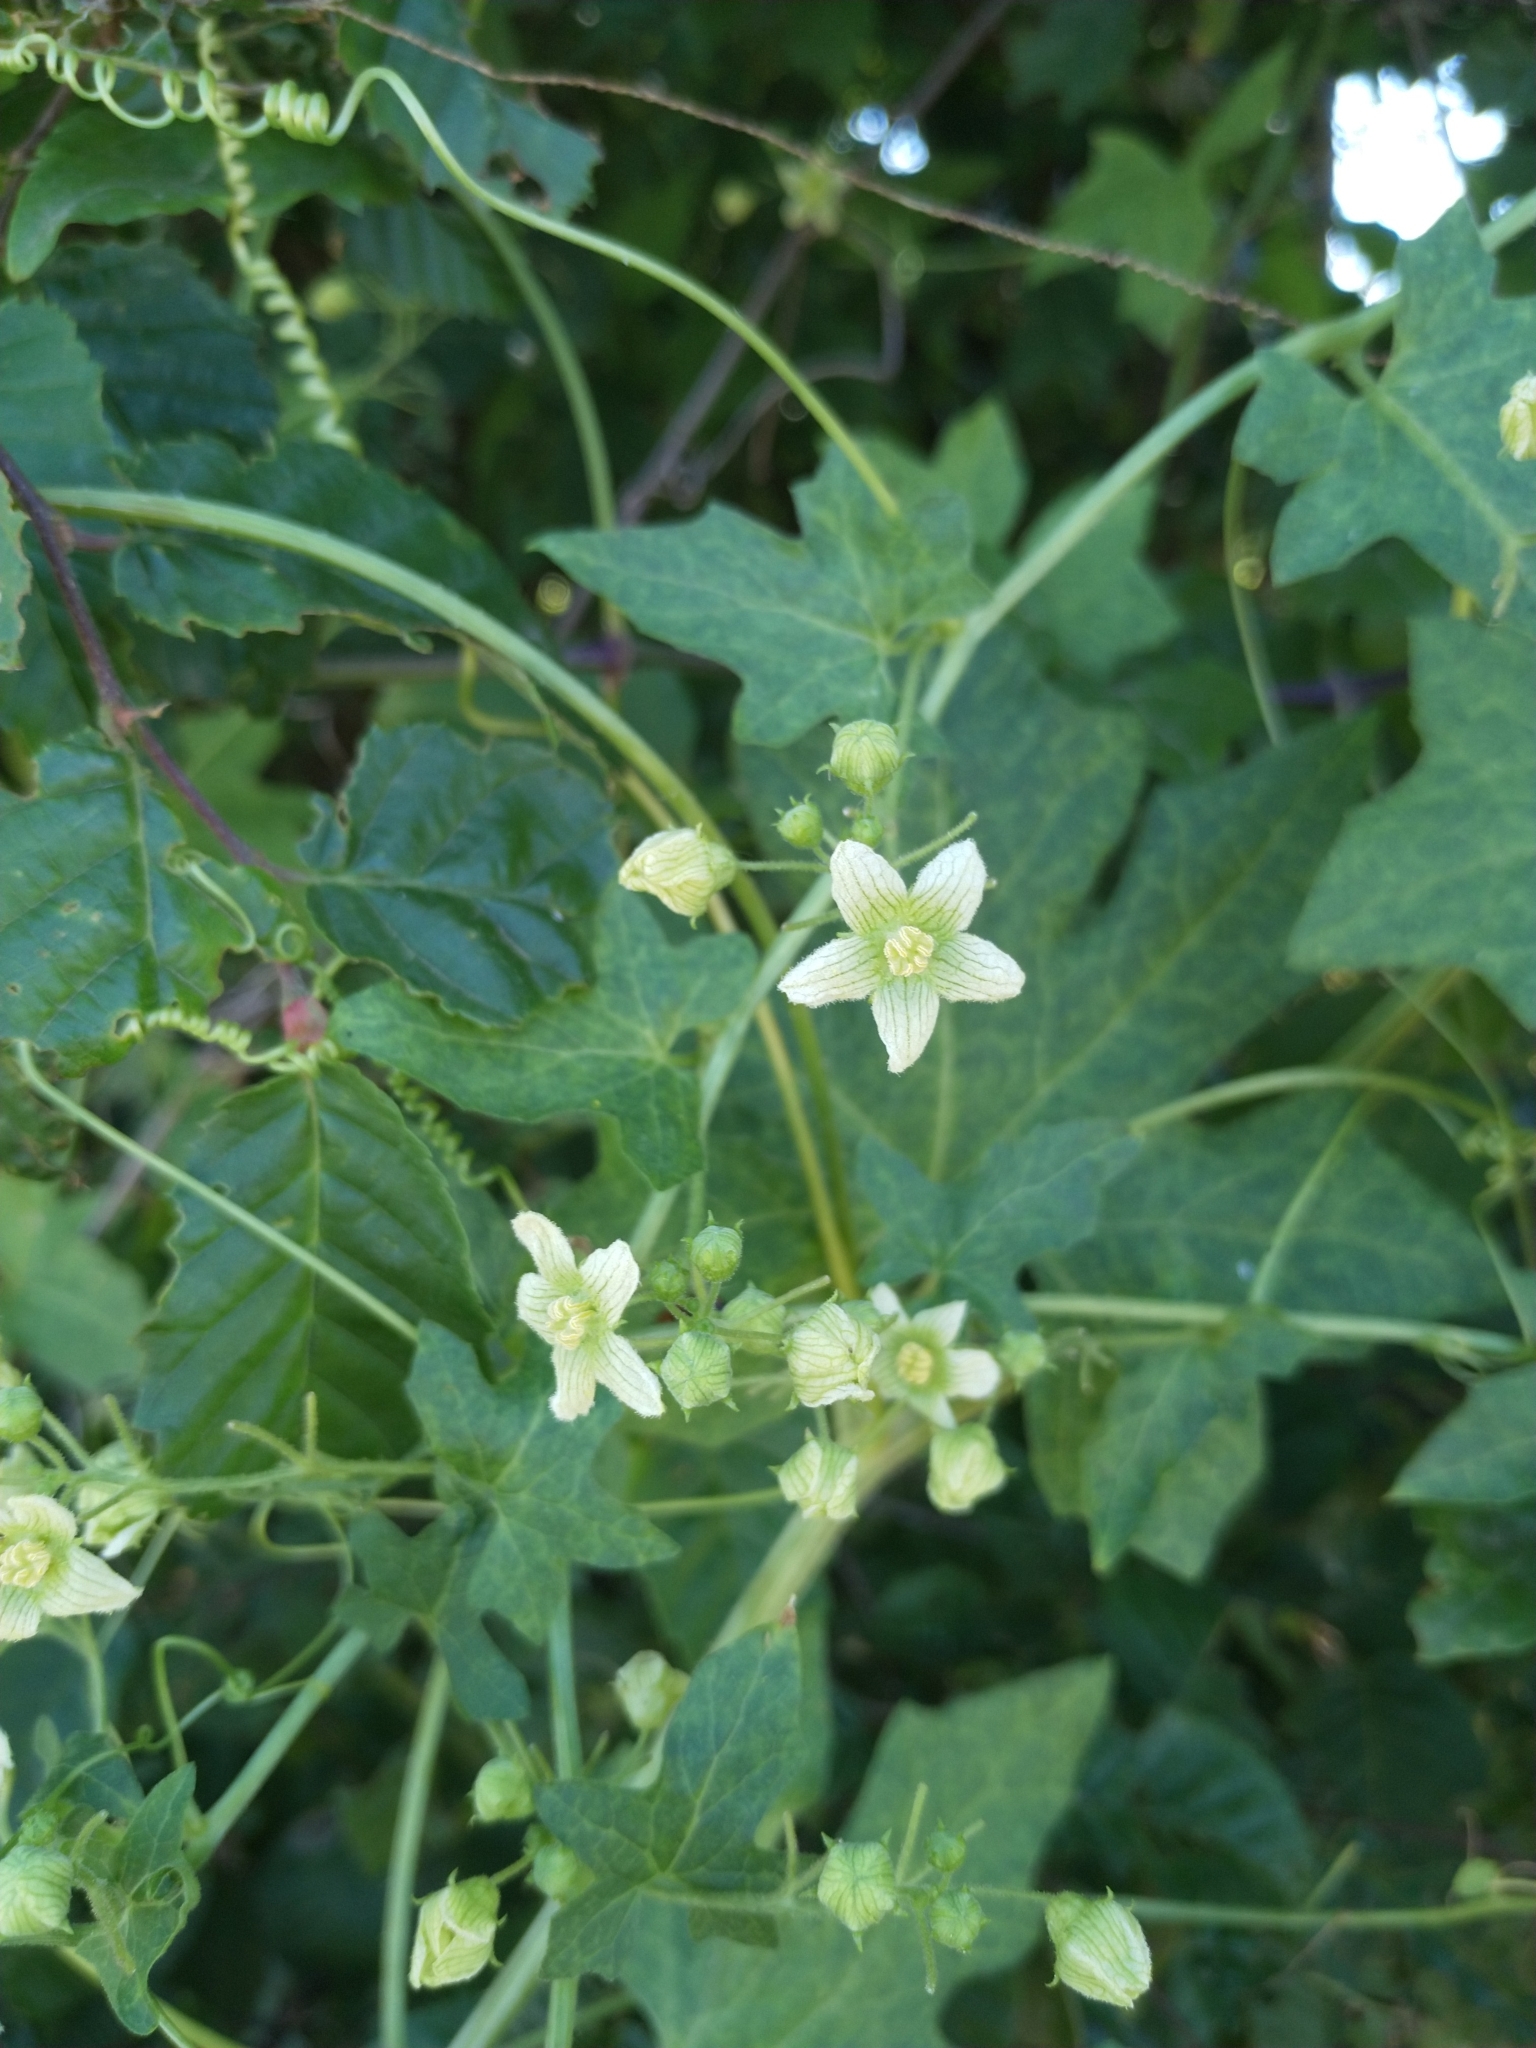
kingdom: Plantae
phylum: Tracheophyta
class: Magnoliopsida
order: Cucurbitales
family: Cucurbitaceae
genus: Bryonia
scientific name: Bryonia cretica
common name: Cretan bryony
